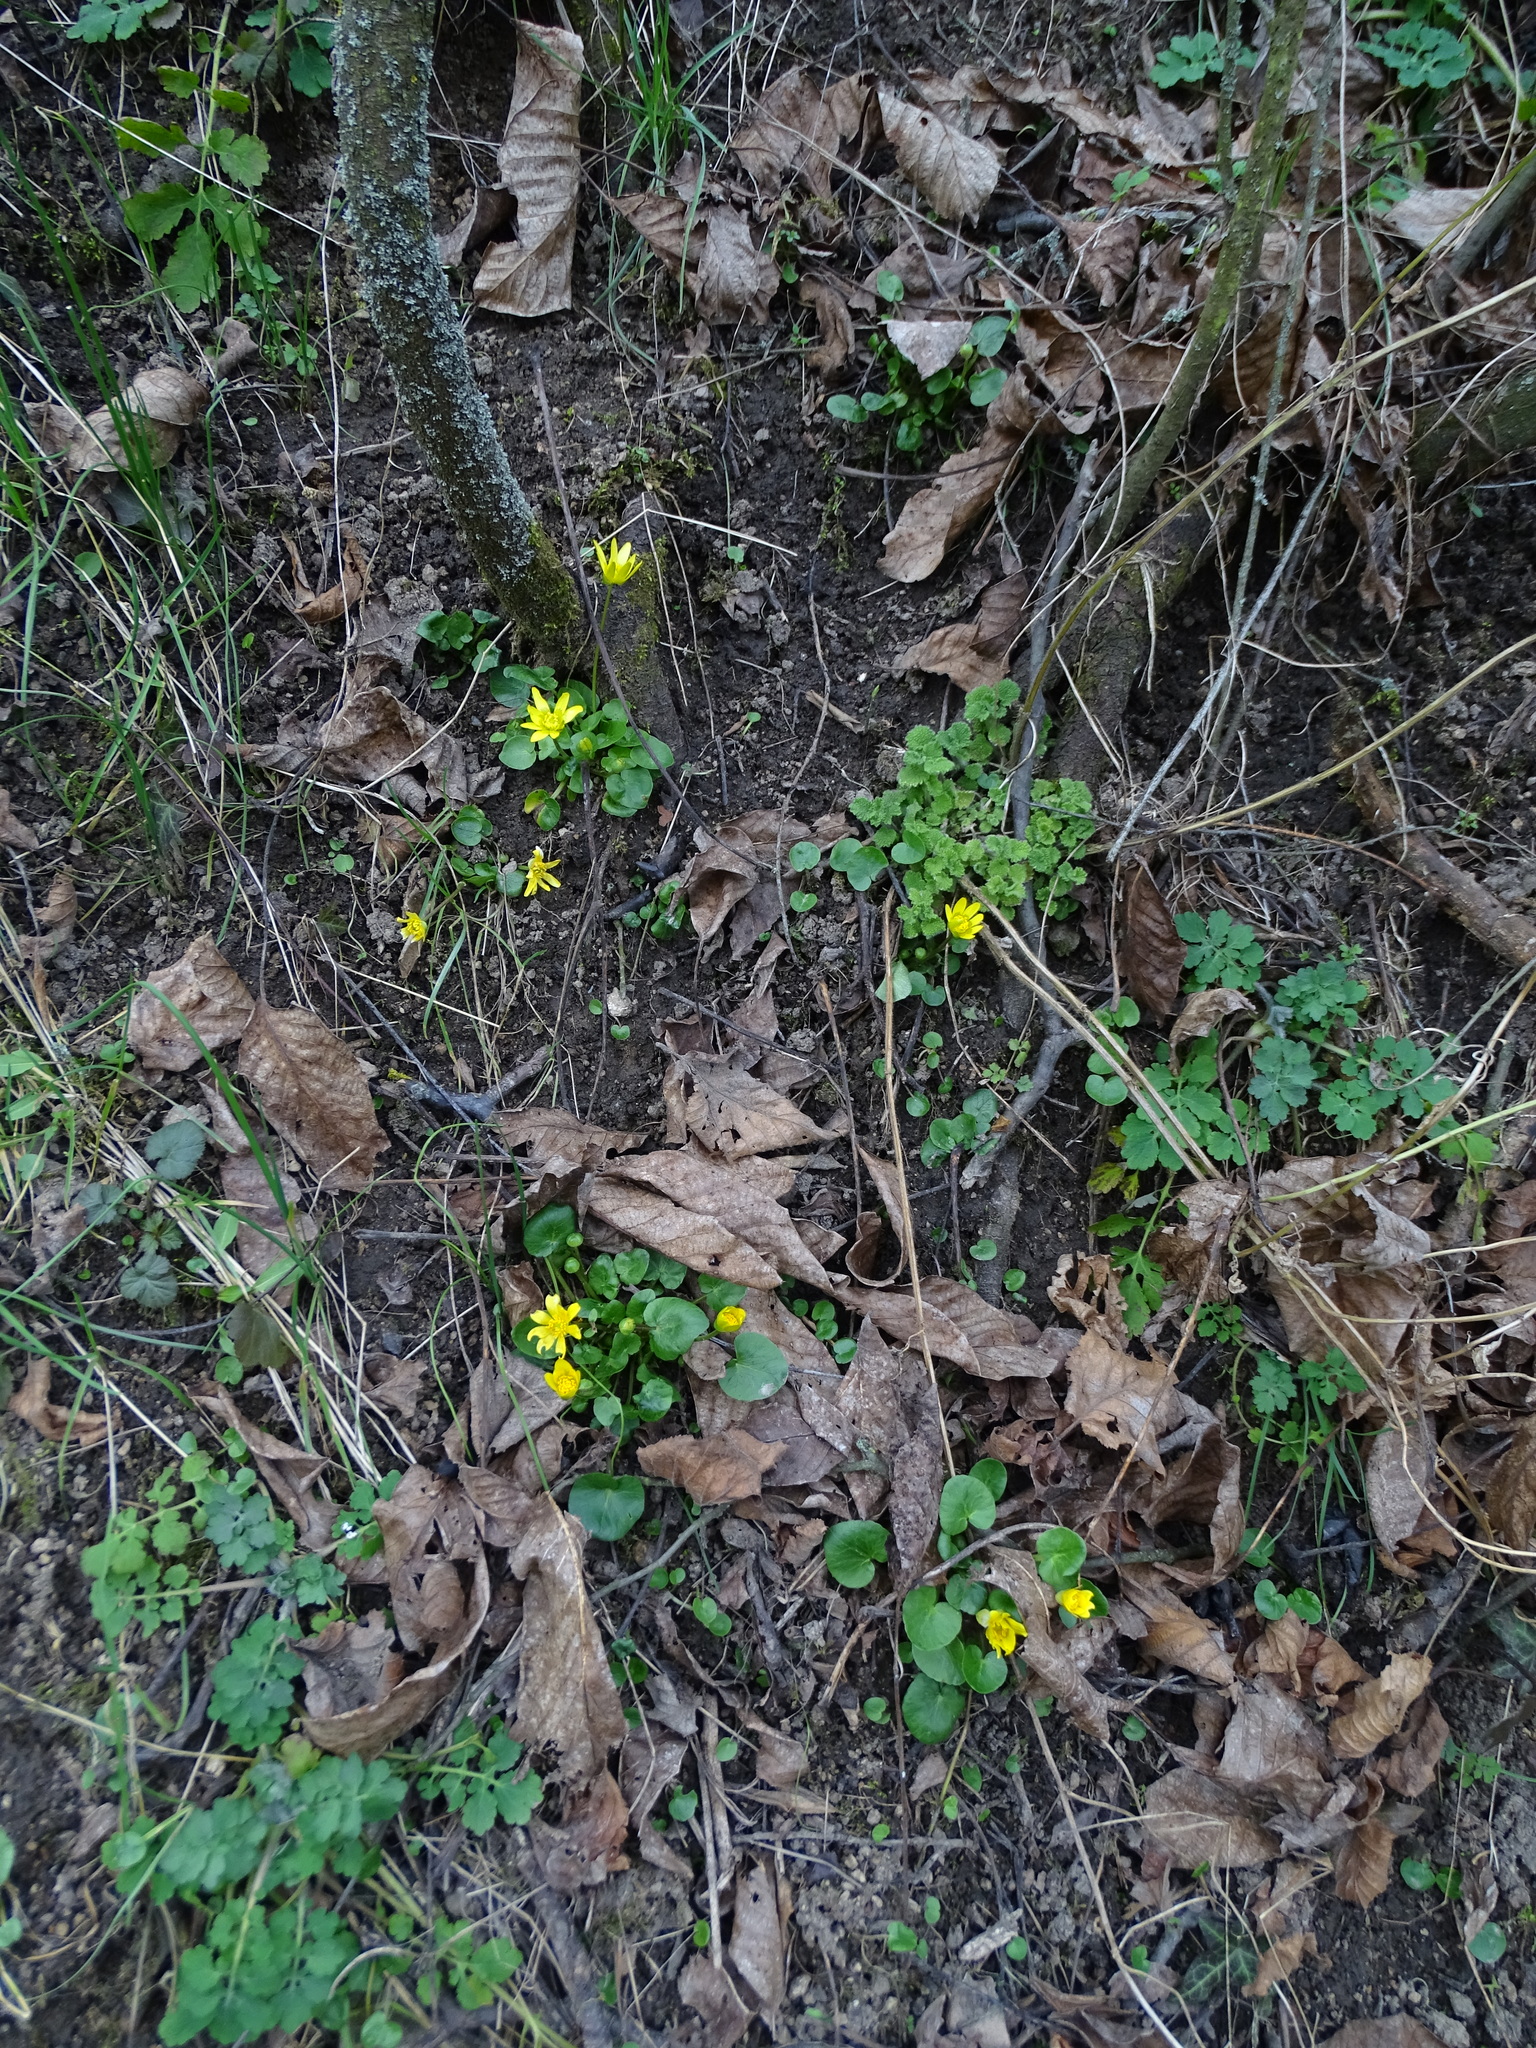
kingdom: Plantae
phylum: Tracheophyta
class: Magnoliopsida
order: Ranunculales
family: Ranunculaceae
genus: Ficaria
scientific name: Ficaria
